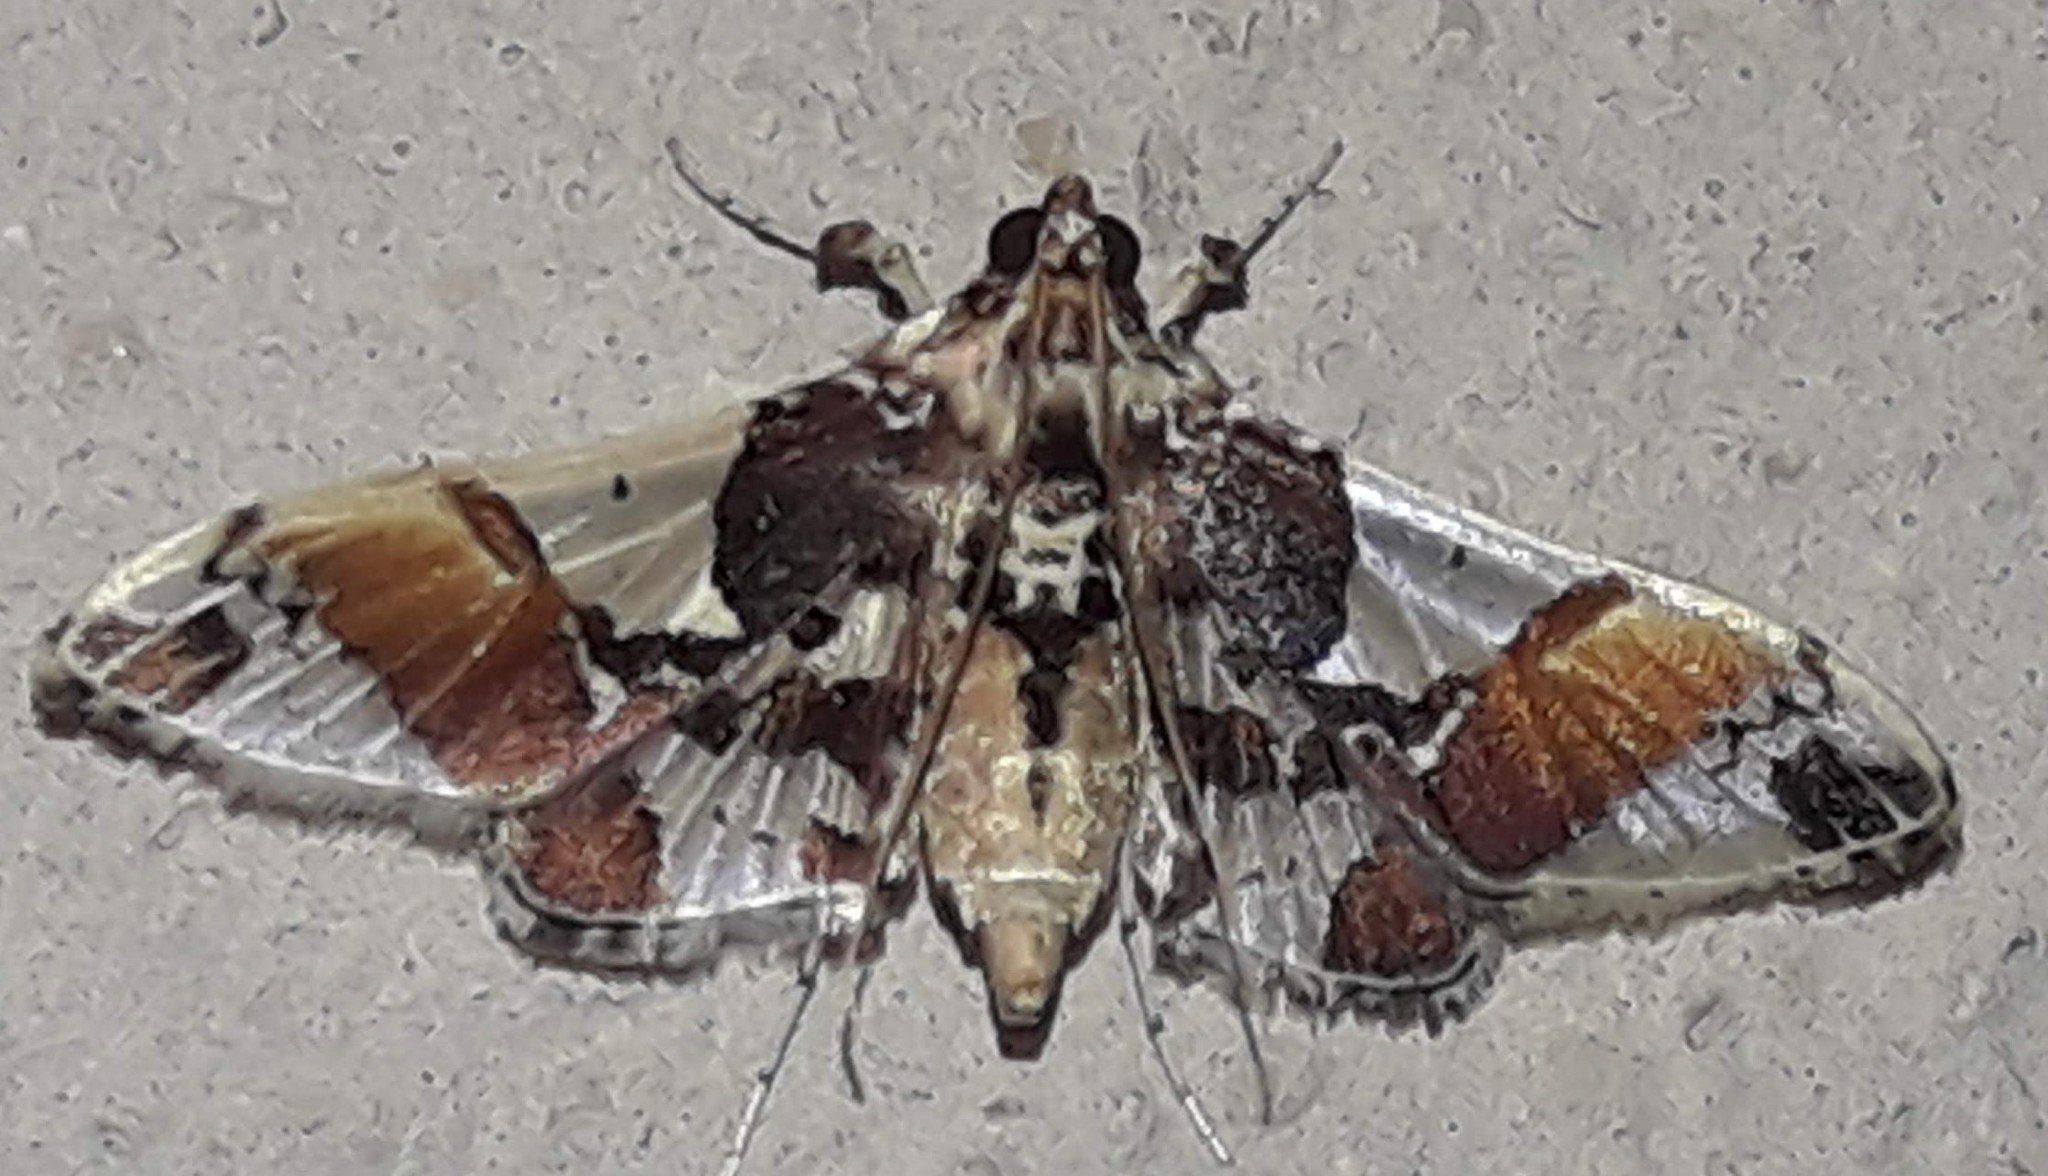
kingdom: Animalia
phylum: Arthropoda
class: Insecta
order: Lepidoptera
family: Crambidae
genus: Syngamilyta
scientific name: Syngamilyta apicolor
